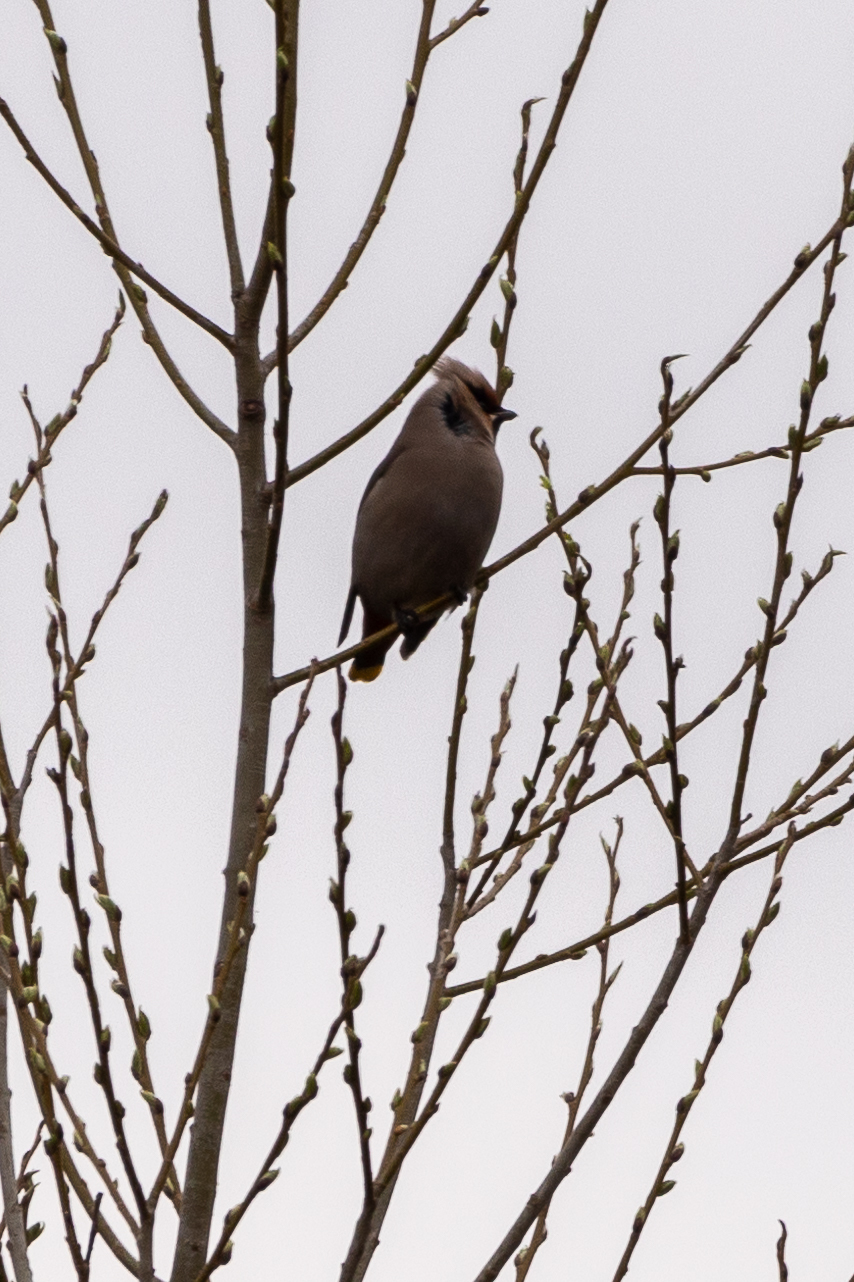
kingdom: Animalia
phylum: Chordata
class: Aves
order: Passeriformes
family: Bombycillidae
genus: Bombycilla
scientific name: Bombycilla garrulus
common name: Bohemian waxwing
